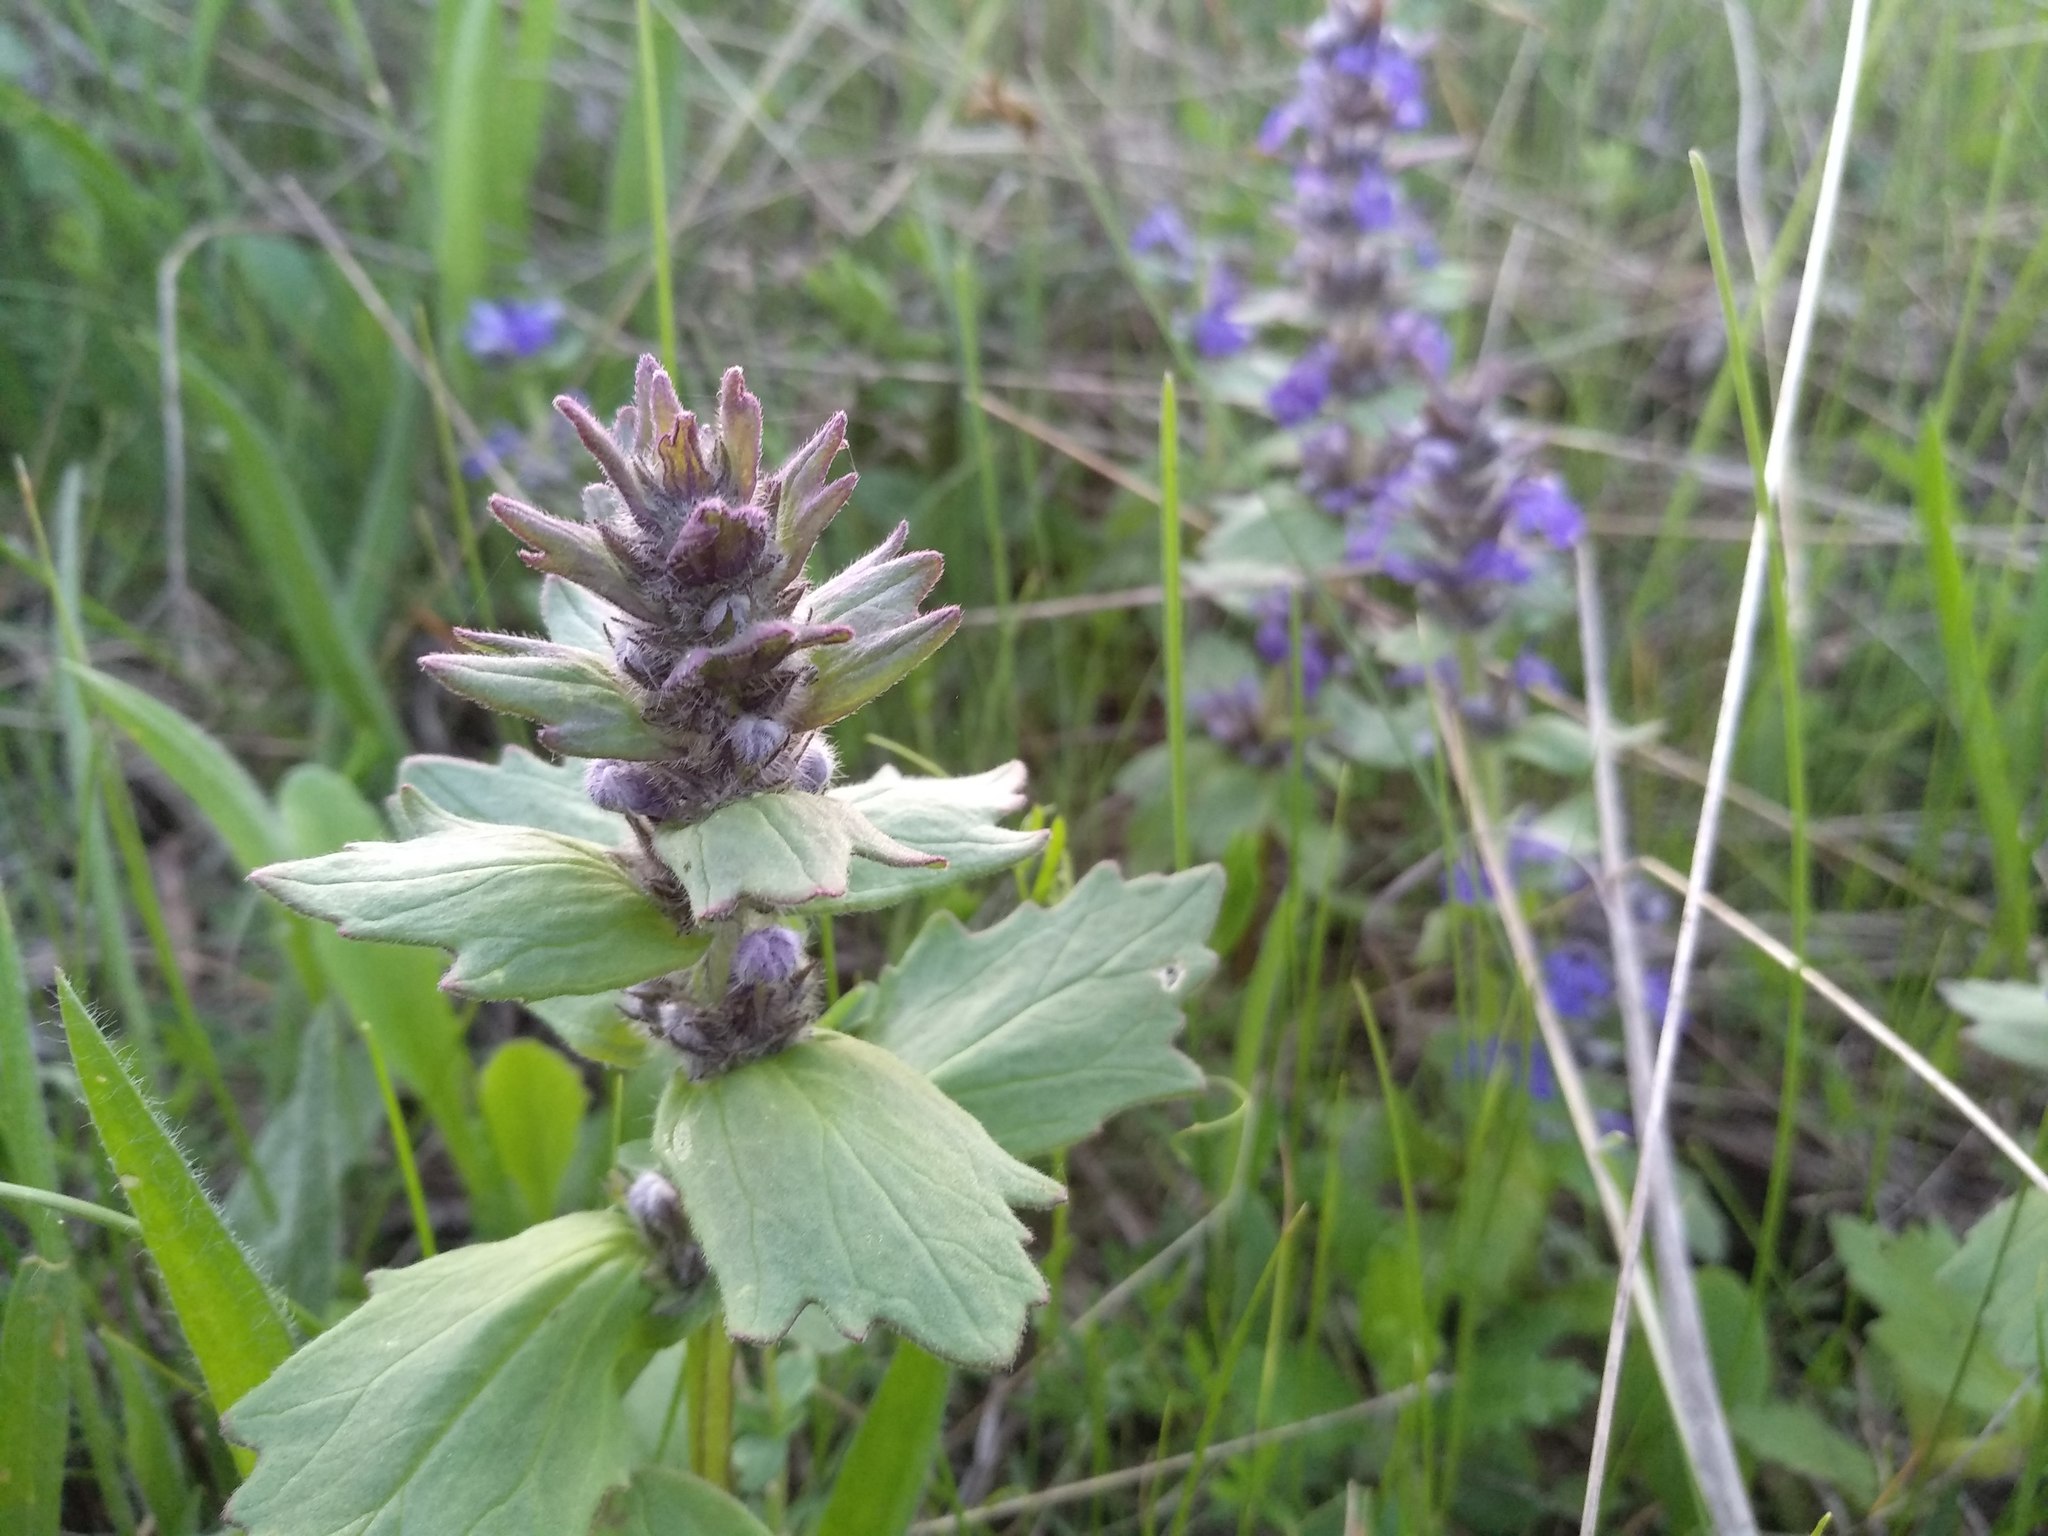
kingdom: Plantae
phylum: Tracheophyta
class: Magnoliopsida
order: Lamiales
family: Lamiaceae
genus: Ajuga
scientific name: Ajuga genevensis
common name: Blue bugle
